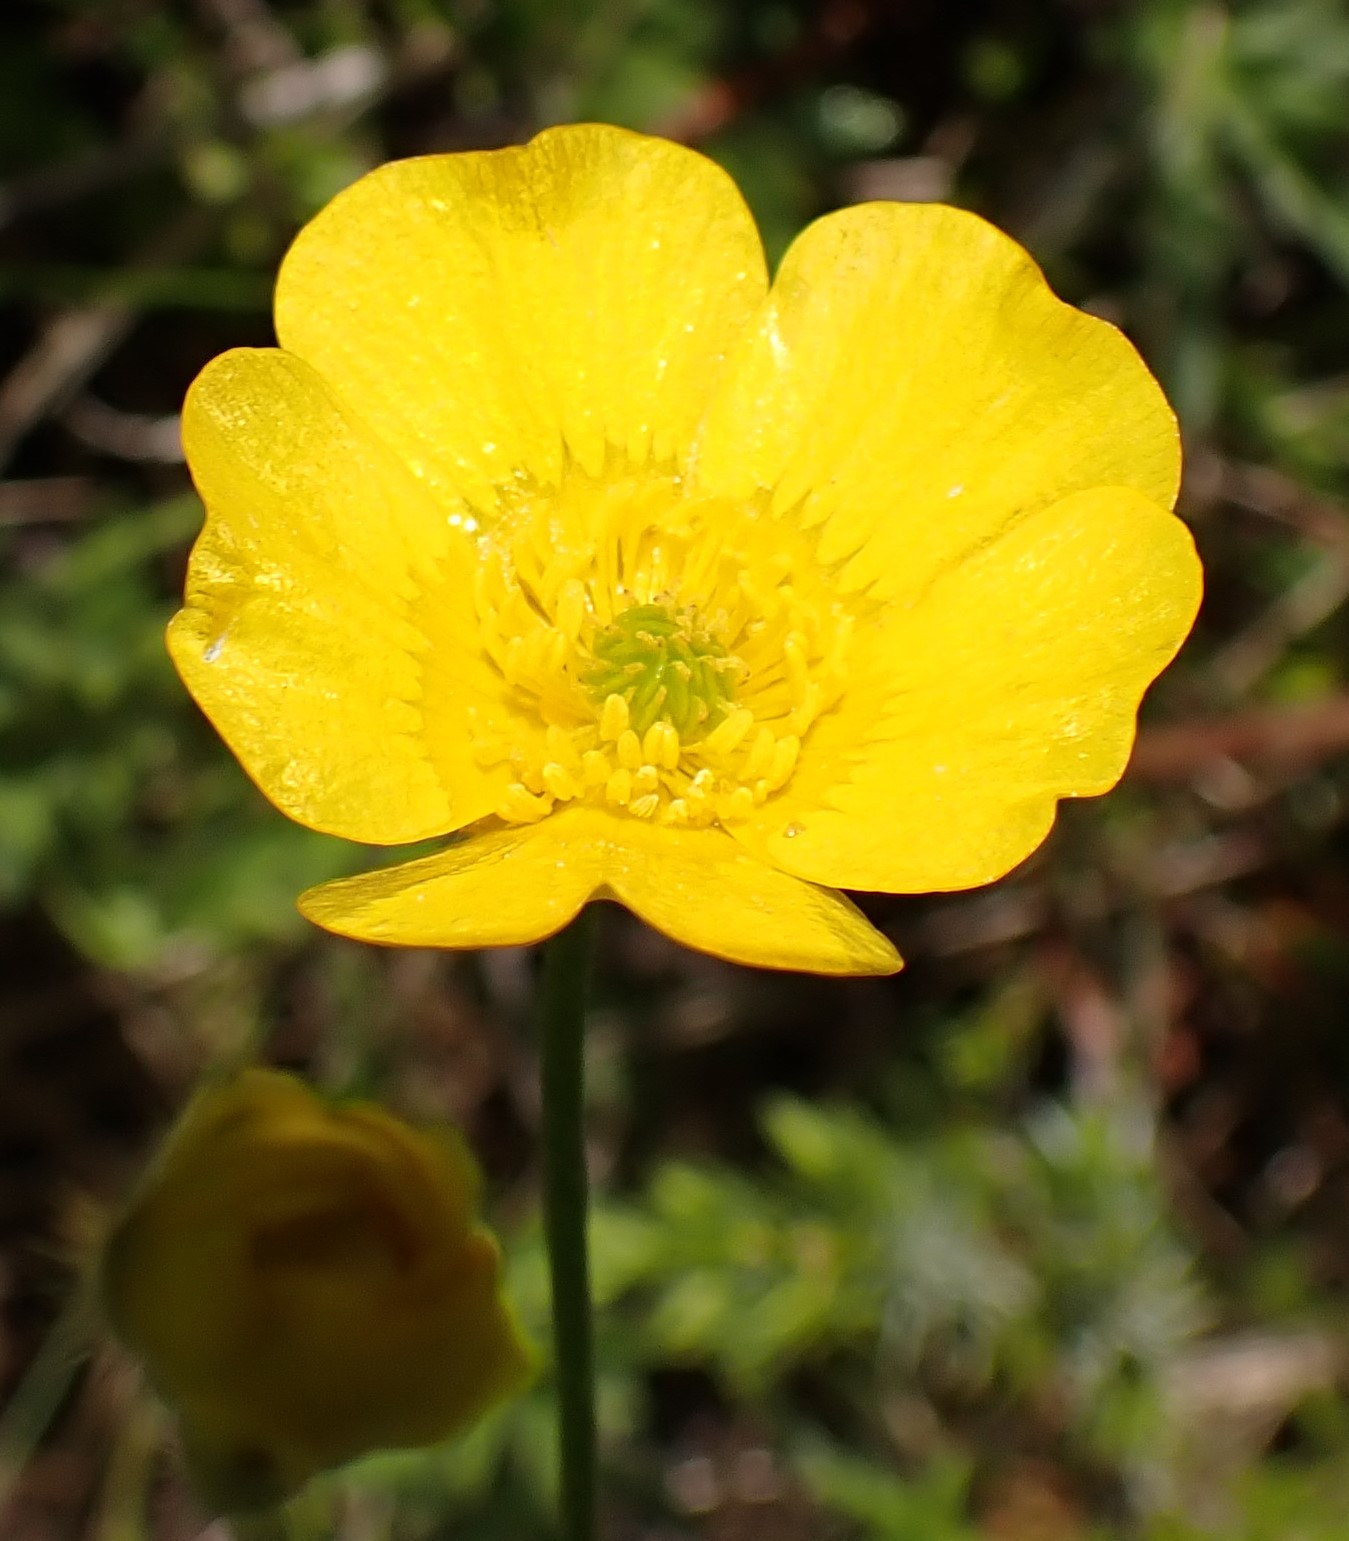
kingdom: Plantae
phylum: Tracheophyta
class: Magnoliopsida
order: Ranunculales
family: Ranunculaceae
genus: Ranunculus
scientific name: Ranunculus
